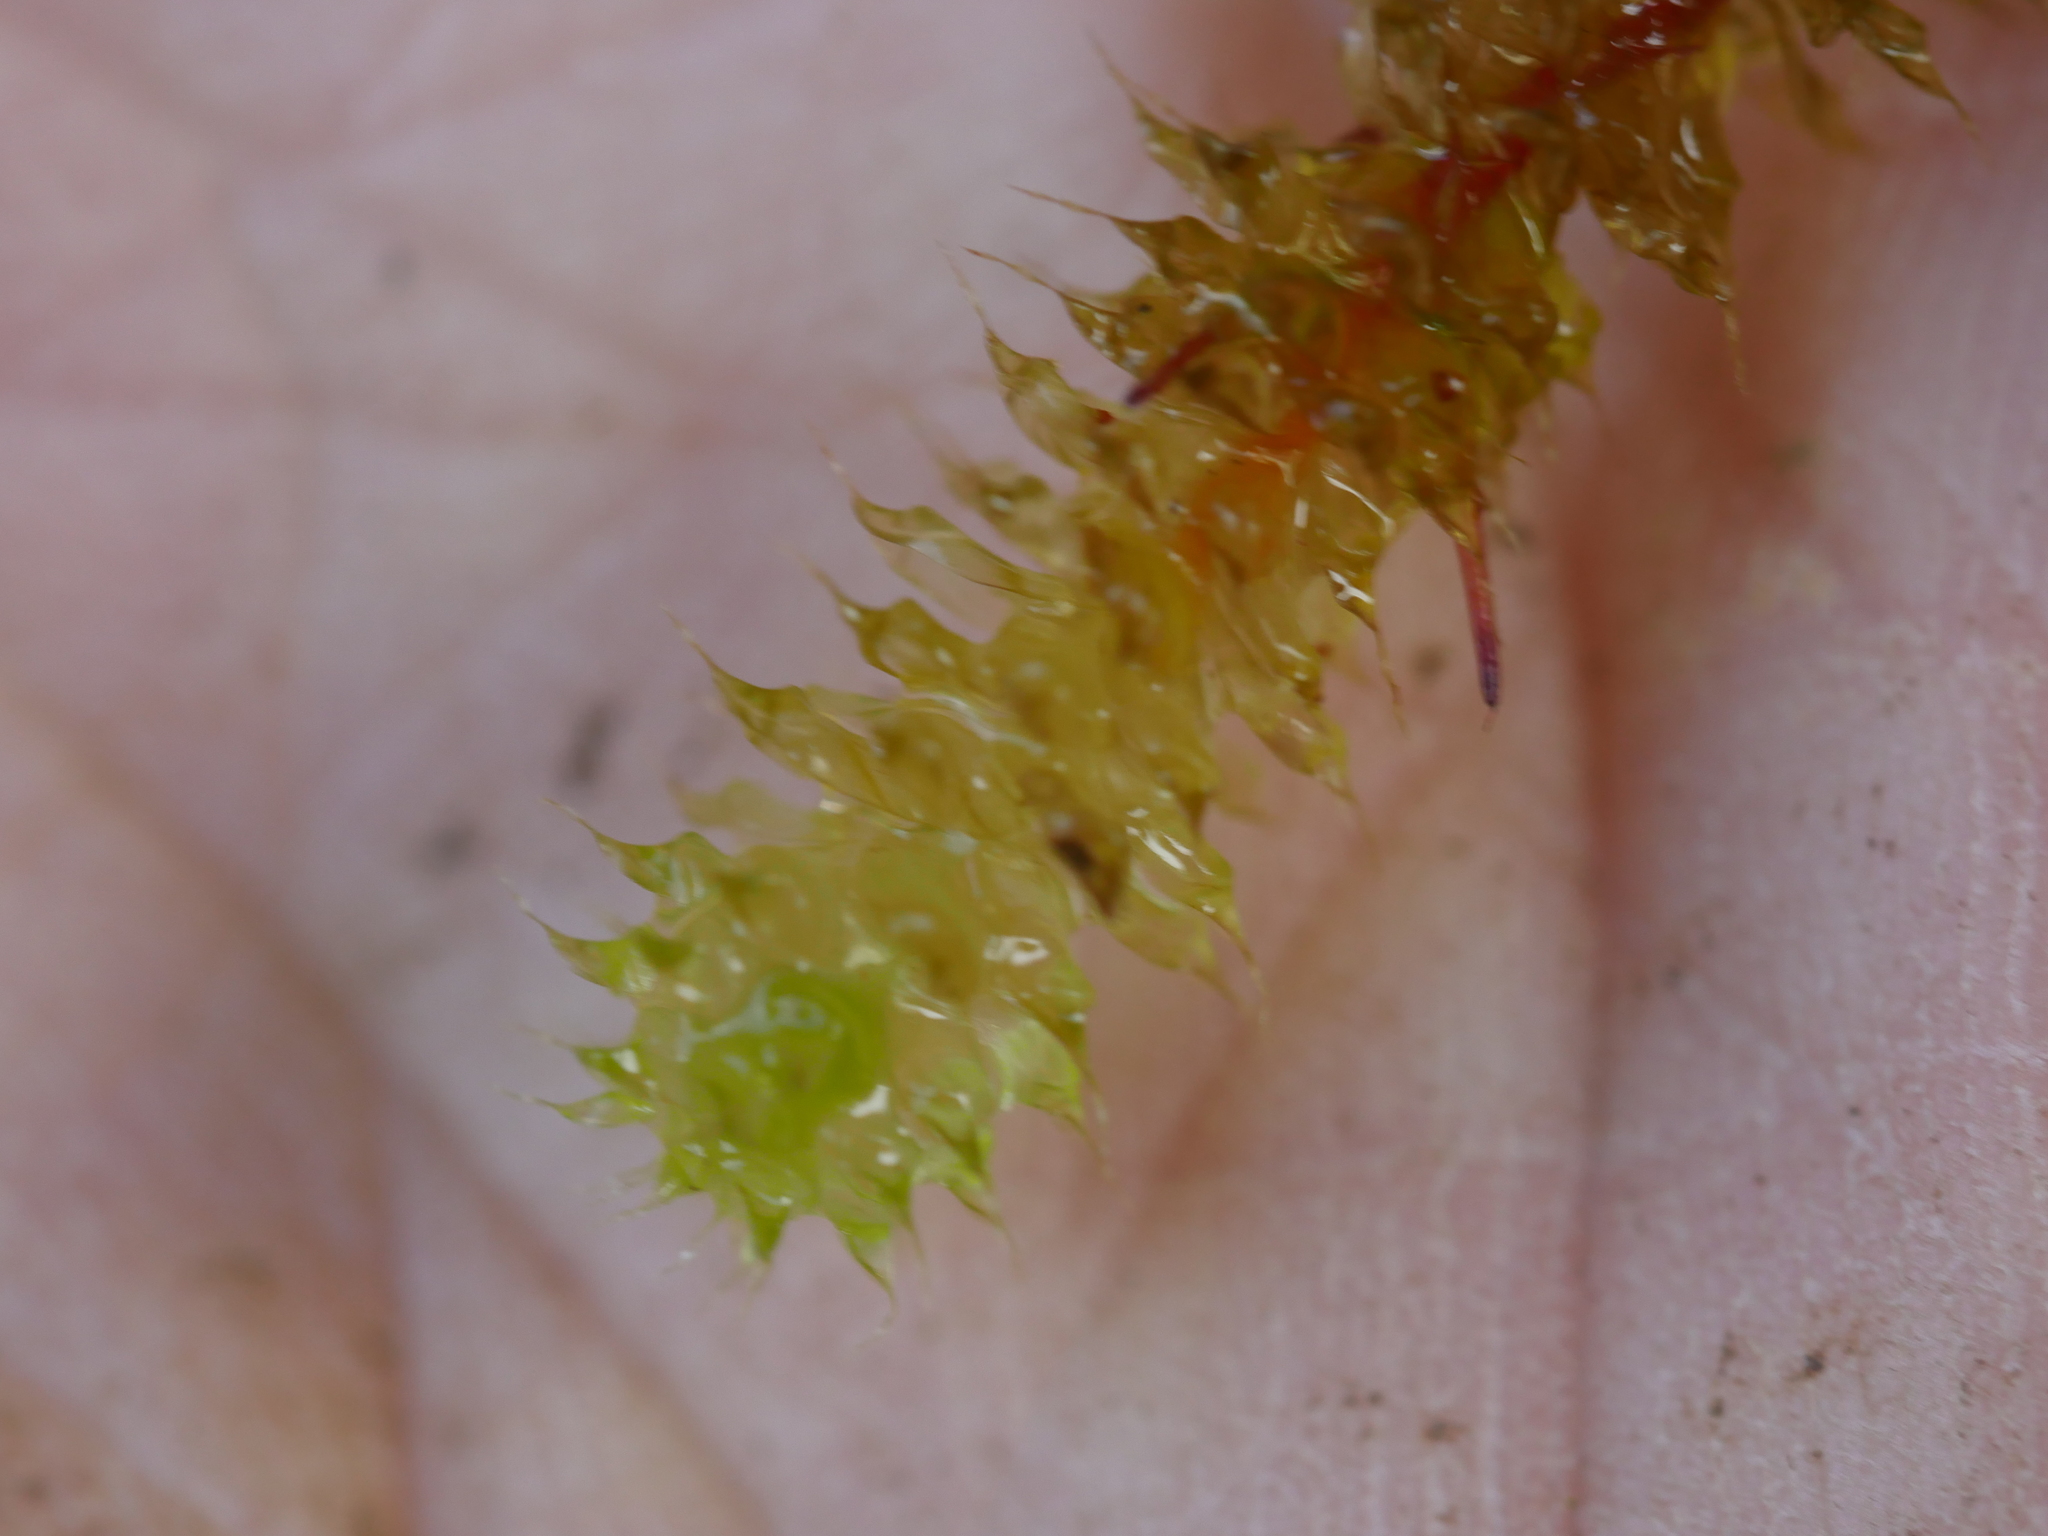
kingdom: Plantae
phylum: Bryophyta
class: Bryopsida
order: Ptychomniales
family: Ptychomniaceae
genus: Ptychomnion
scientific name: Ptychomnion aciculare
